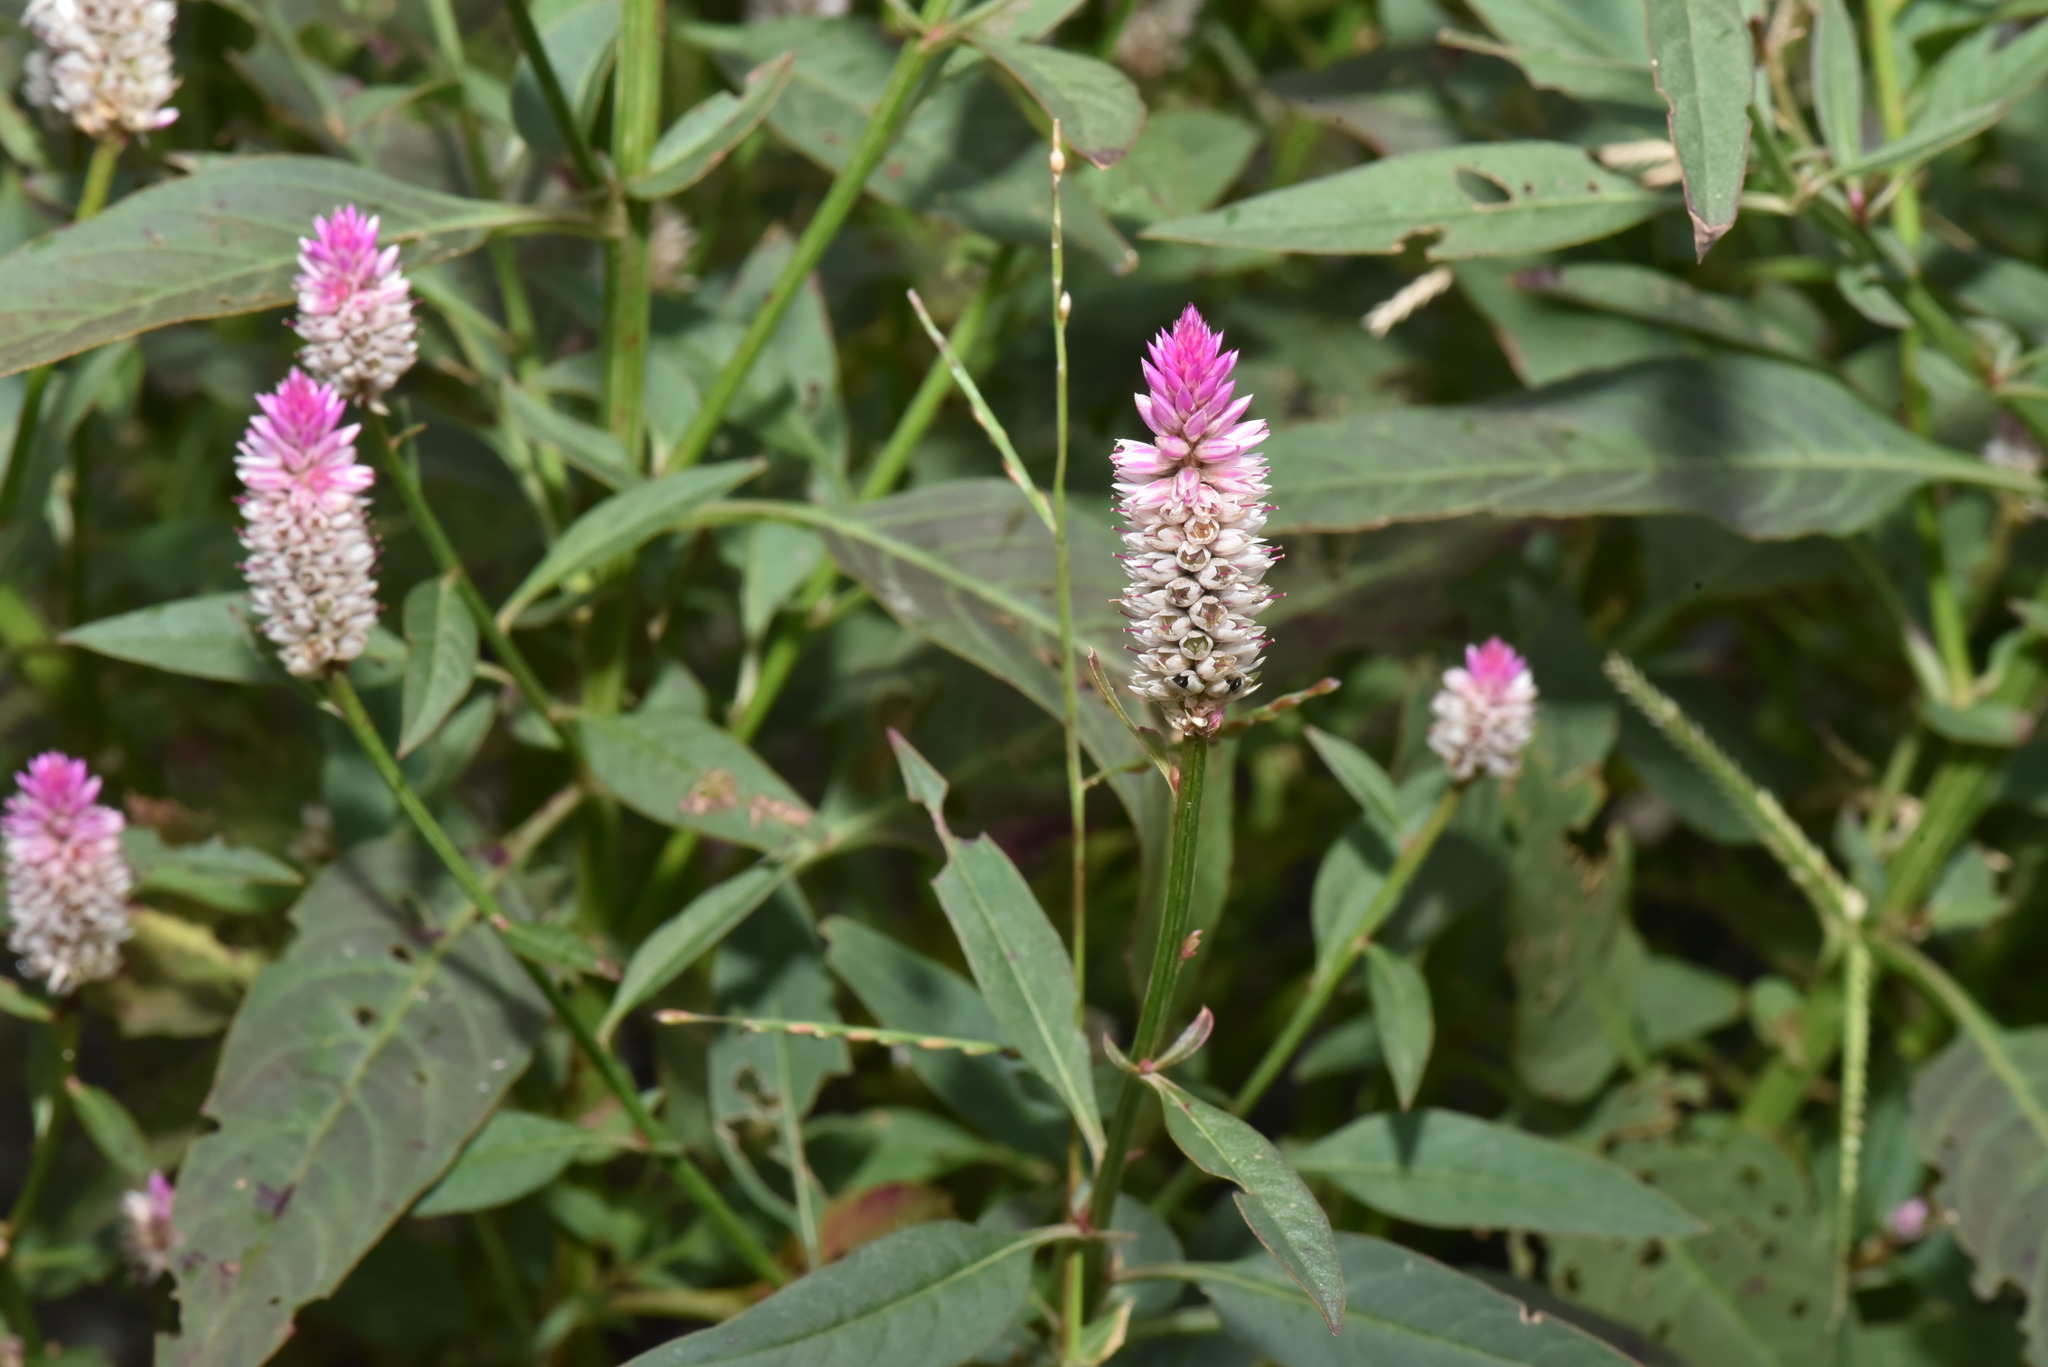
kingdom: Plantae
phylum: Tracheophyta
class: Magnoliopsida
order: Caryophyllales
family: Amaranthaceae
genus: Celosia
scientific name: Celosia argentea
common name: Feather cockscomb
